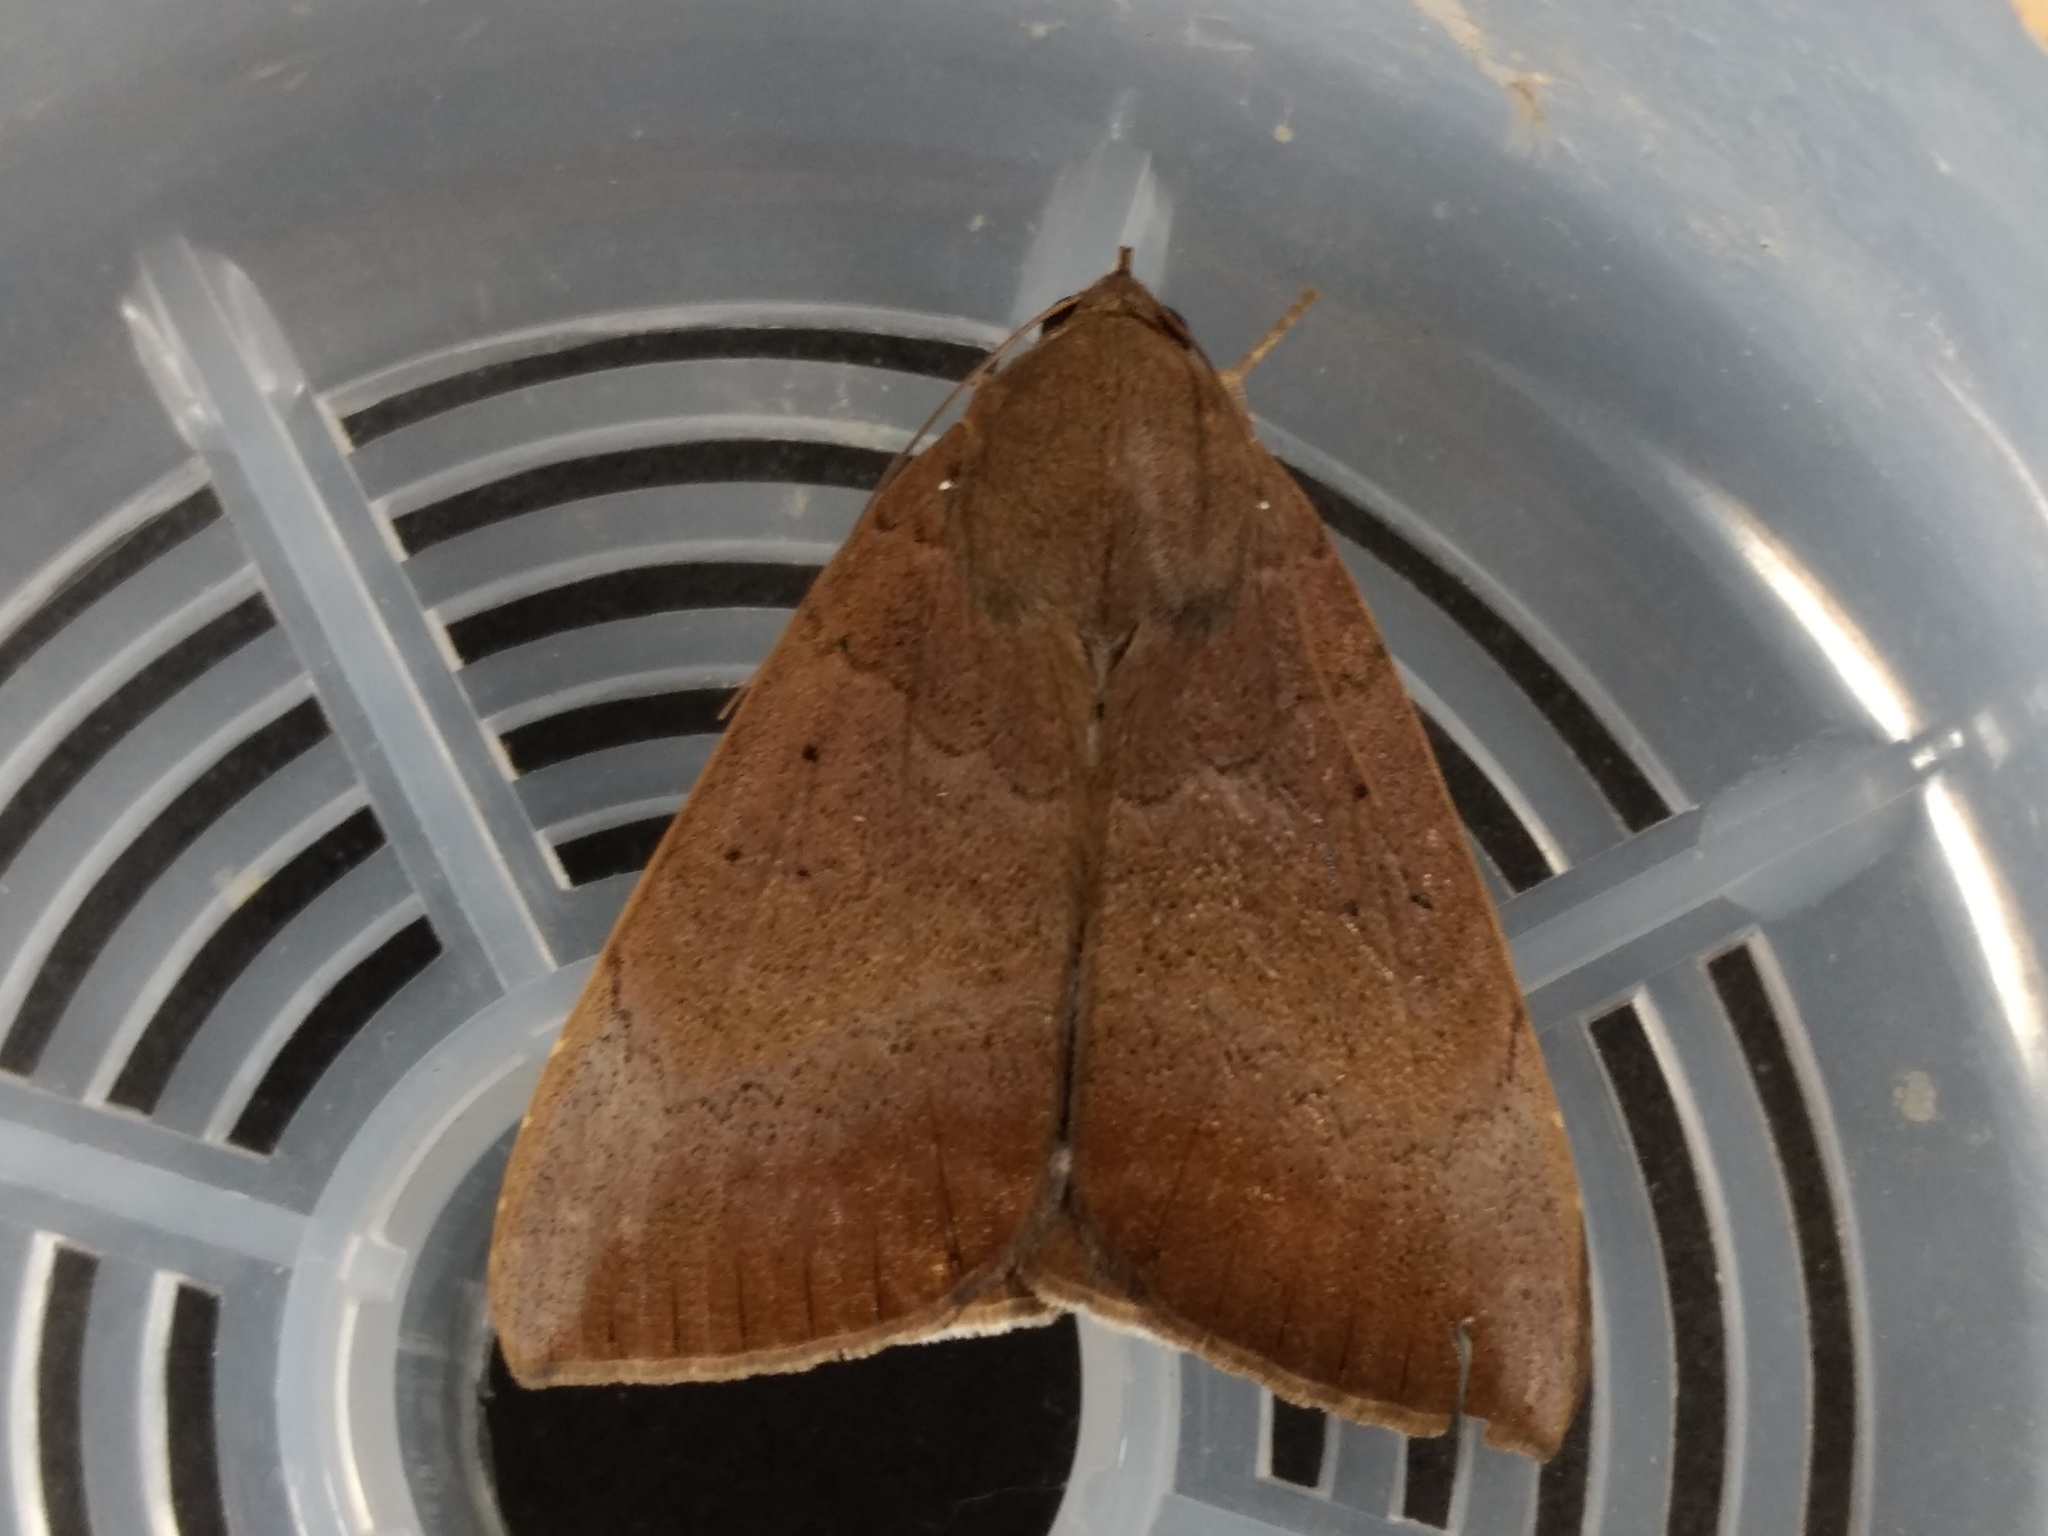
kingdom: Animalia
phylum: Arthropoda
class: Insecta
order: Lepidoptera
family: Erebidae
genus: Achaea
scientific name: Achaea serva
